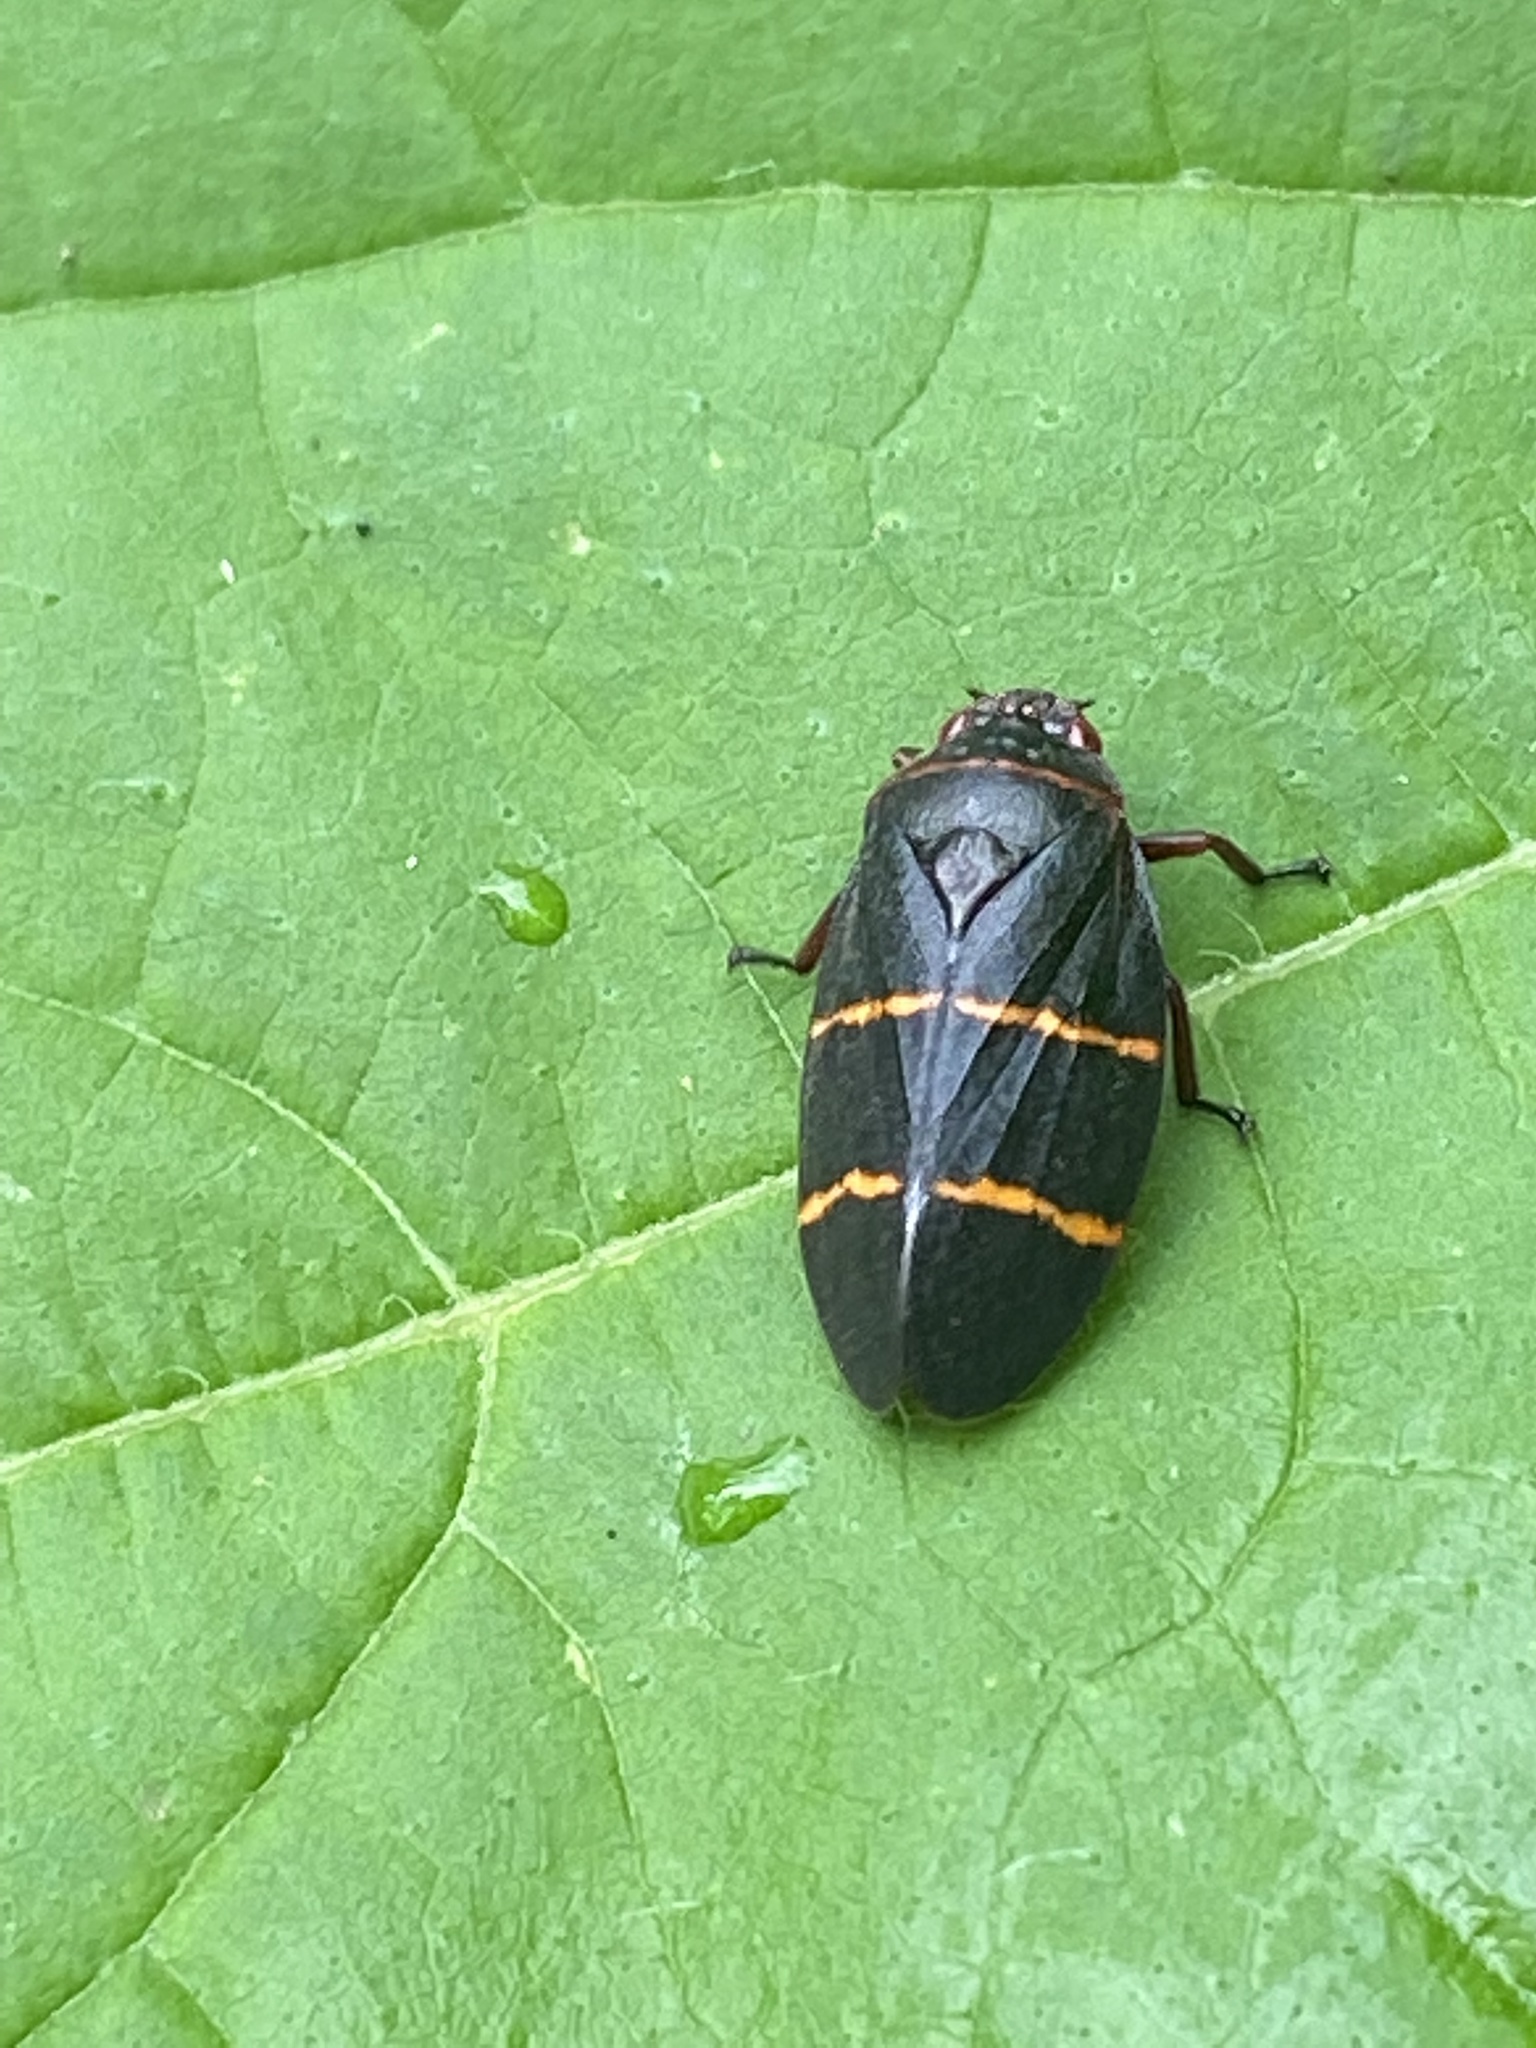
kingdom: Animalia
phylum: Arthropoda
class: Insecta
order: Hemiptera
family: Cercopidae
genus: Prosapia
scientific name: Prosapia bicincta
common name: Twolined spittlebug
